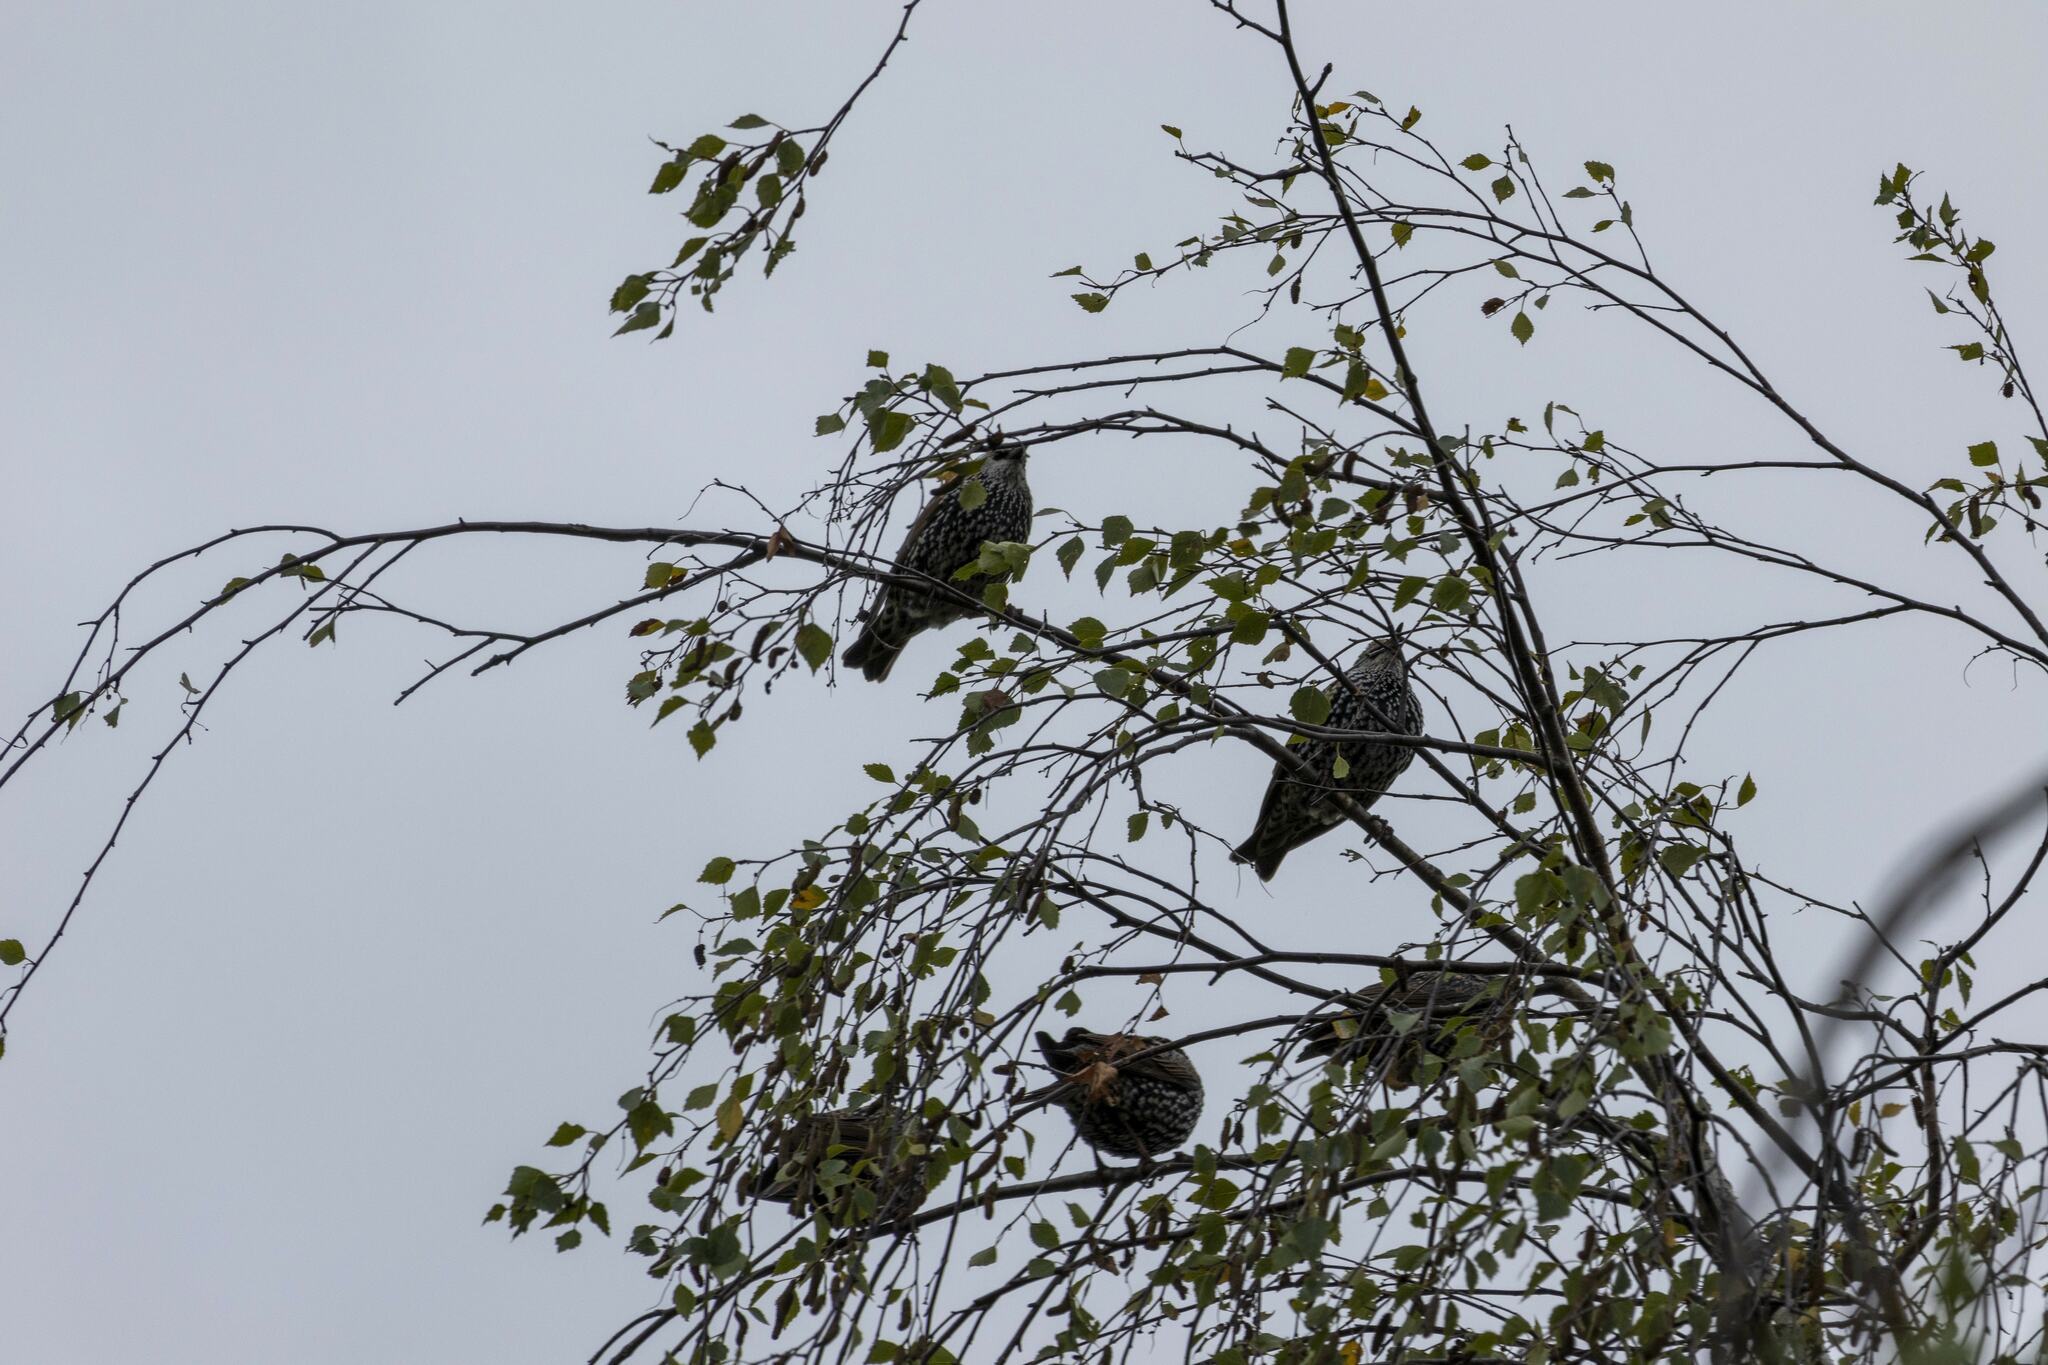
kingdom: Animalia
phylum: Chordata
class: Aves
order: Passeriformes
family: Sturnidae
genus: Sturnus
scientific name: Sturnus vulgaris
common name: Common starling
